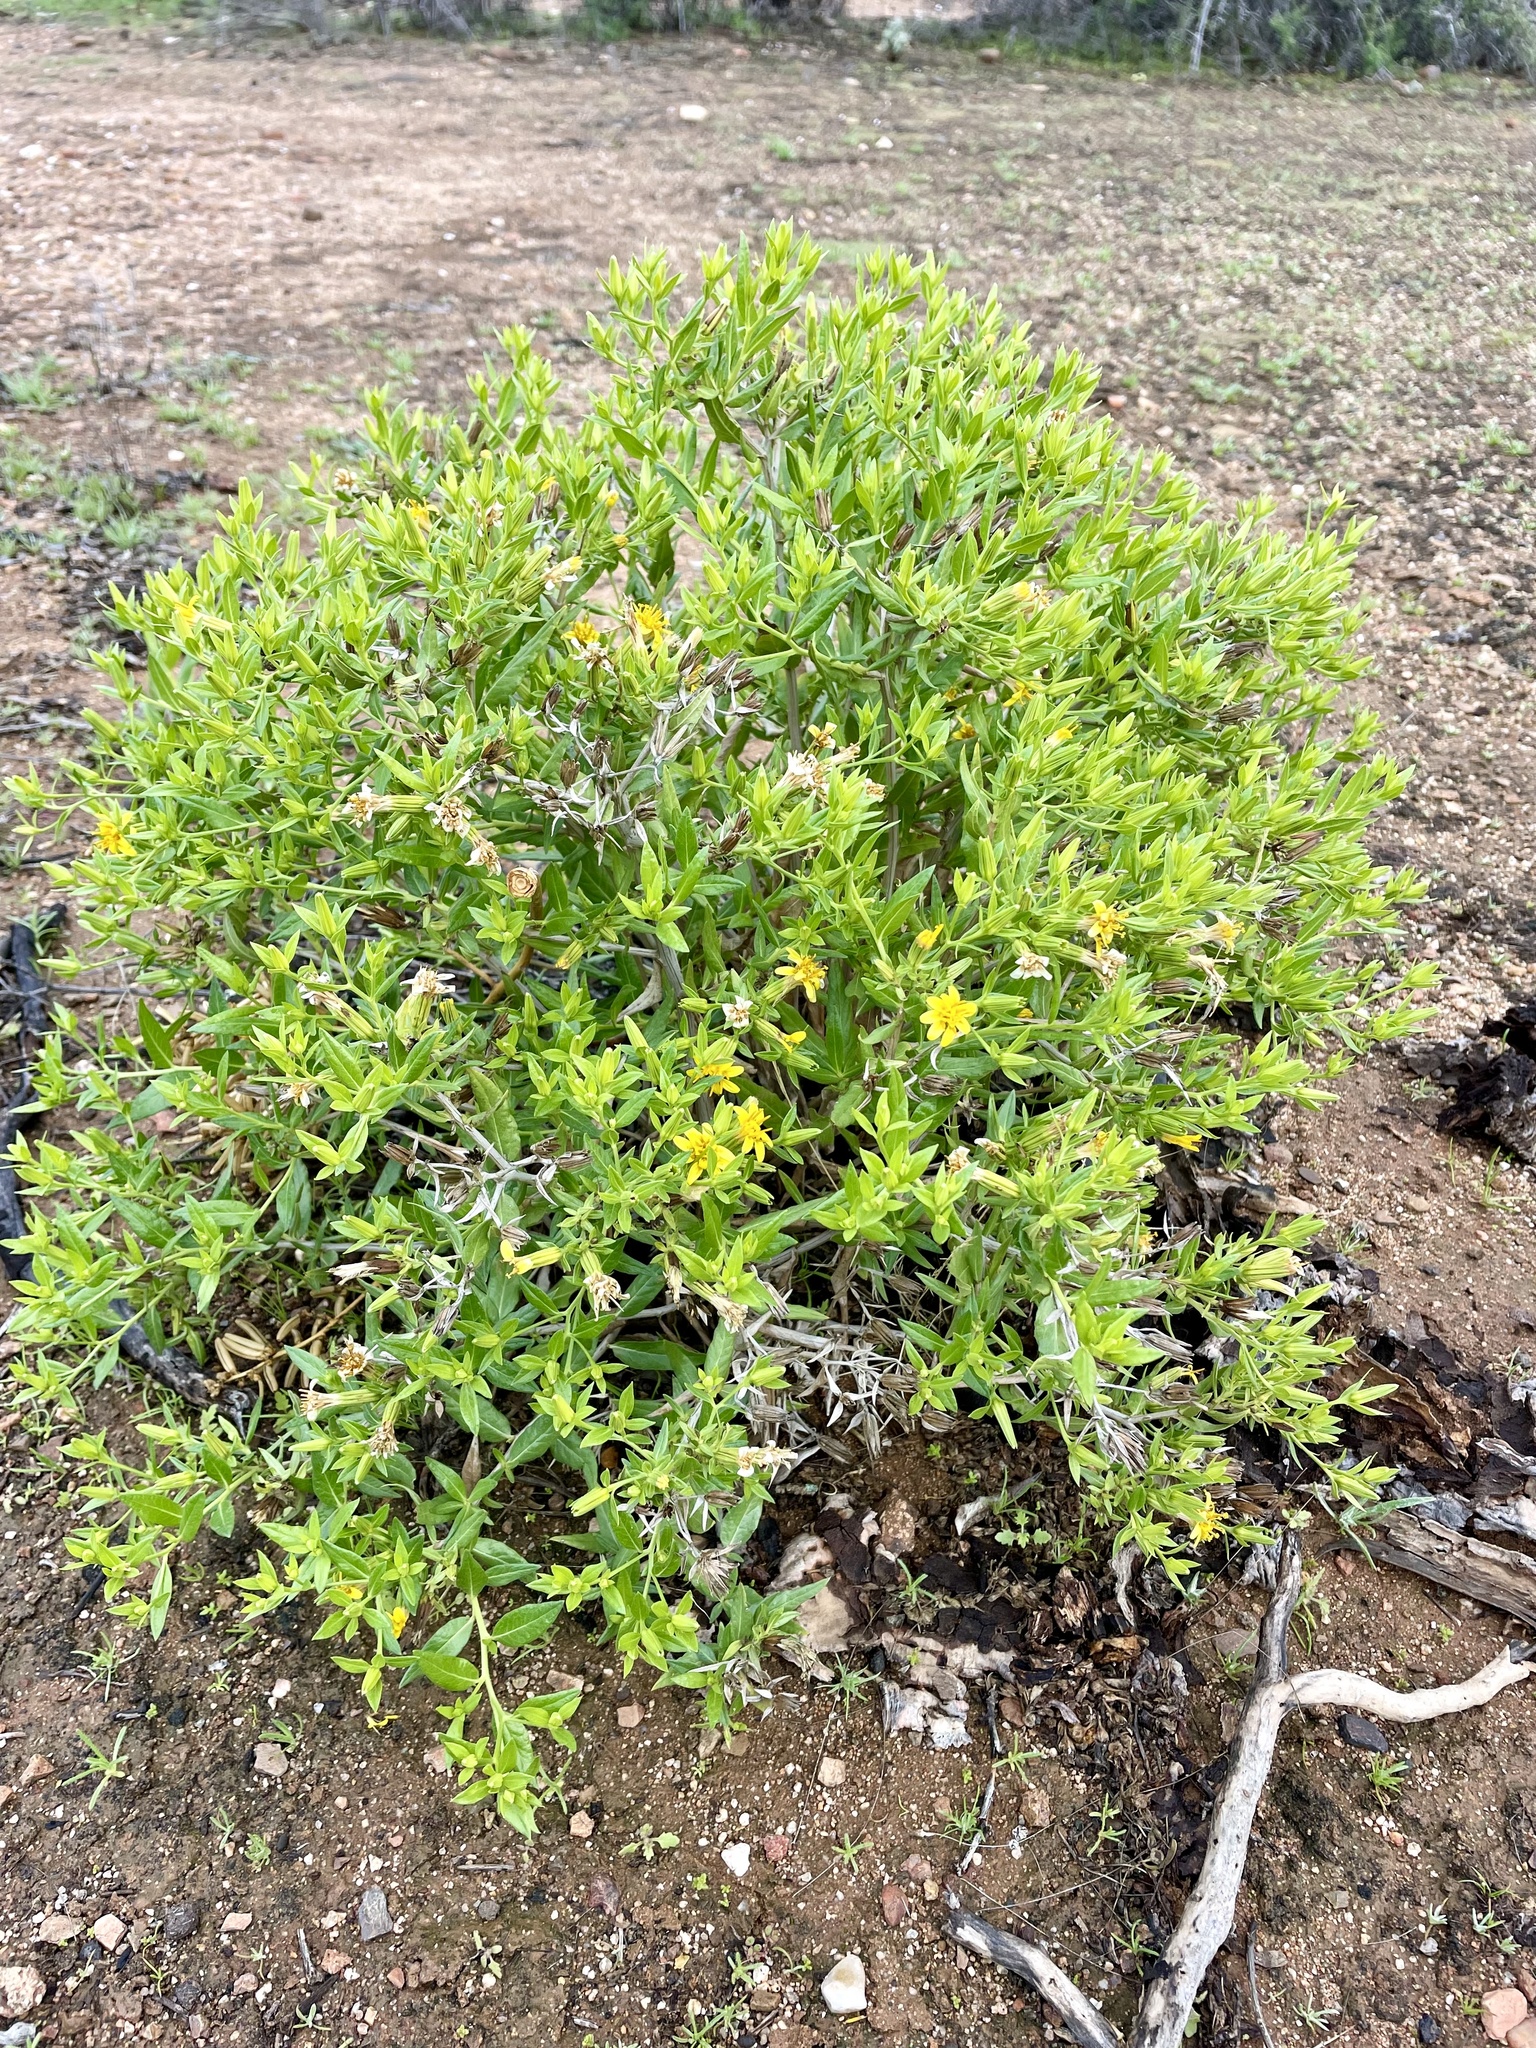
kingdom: Plantae
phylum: Tracheophyta
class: Magnoliopsida
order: Asterales
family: Asteraceae
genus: Trixis
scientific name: Trixis californica
